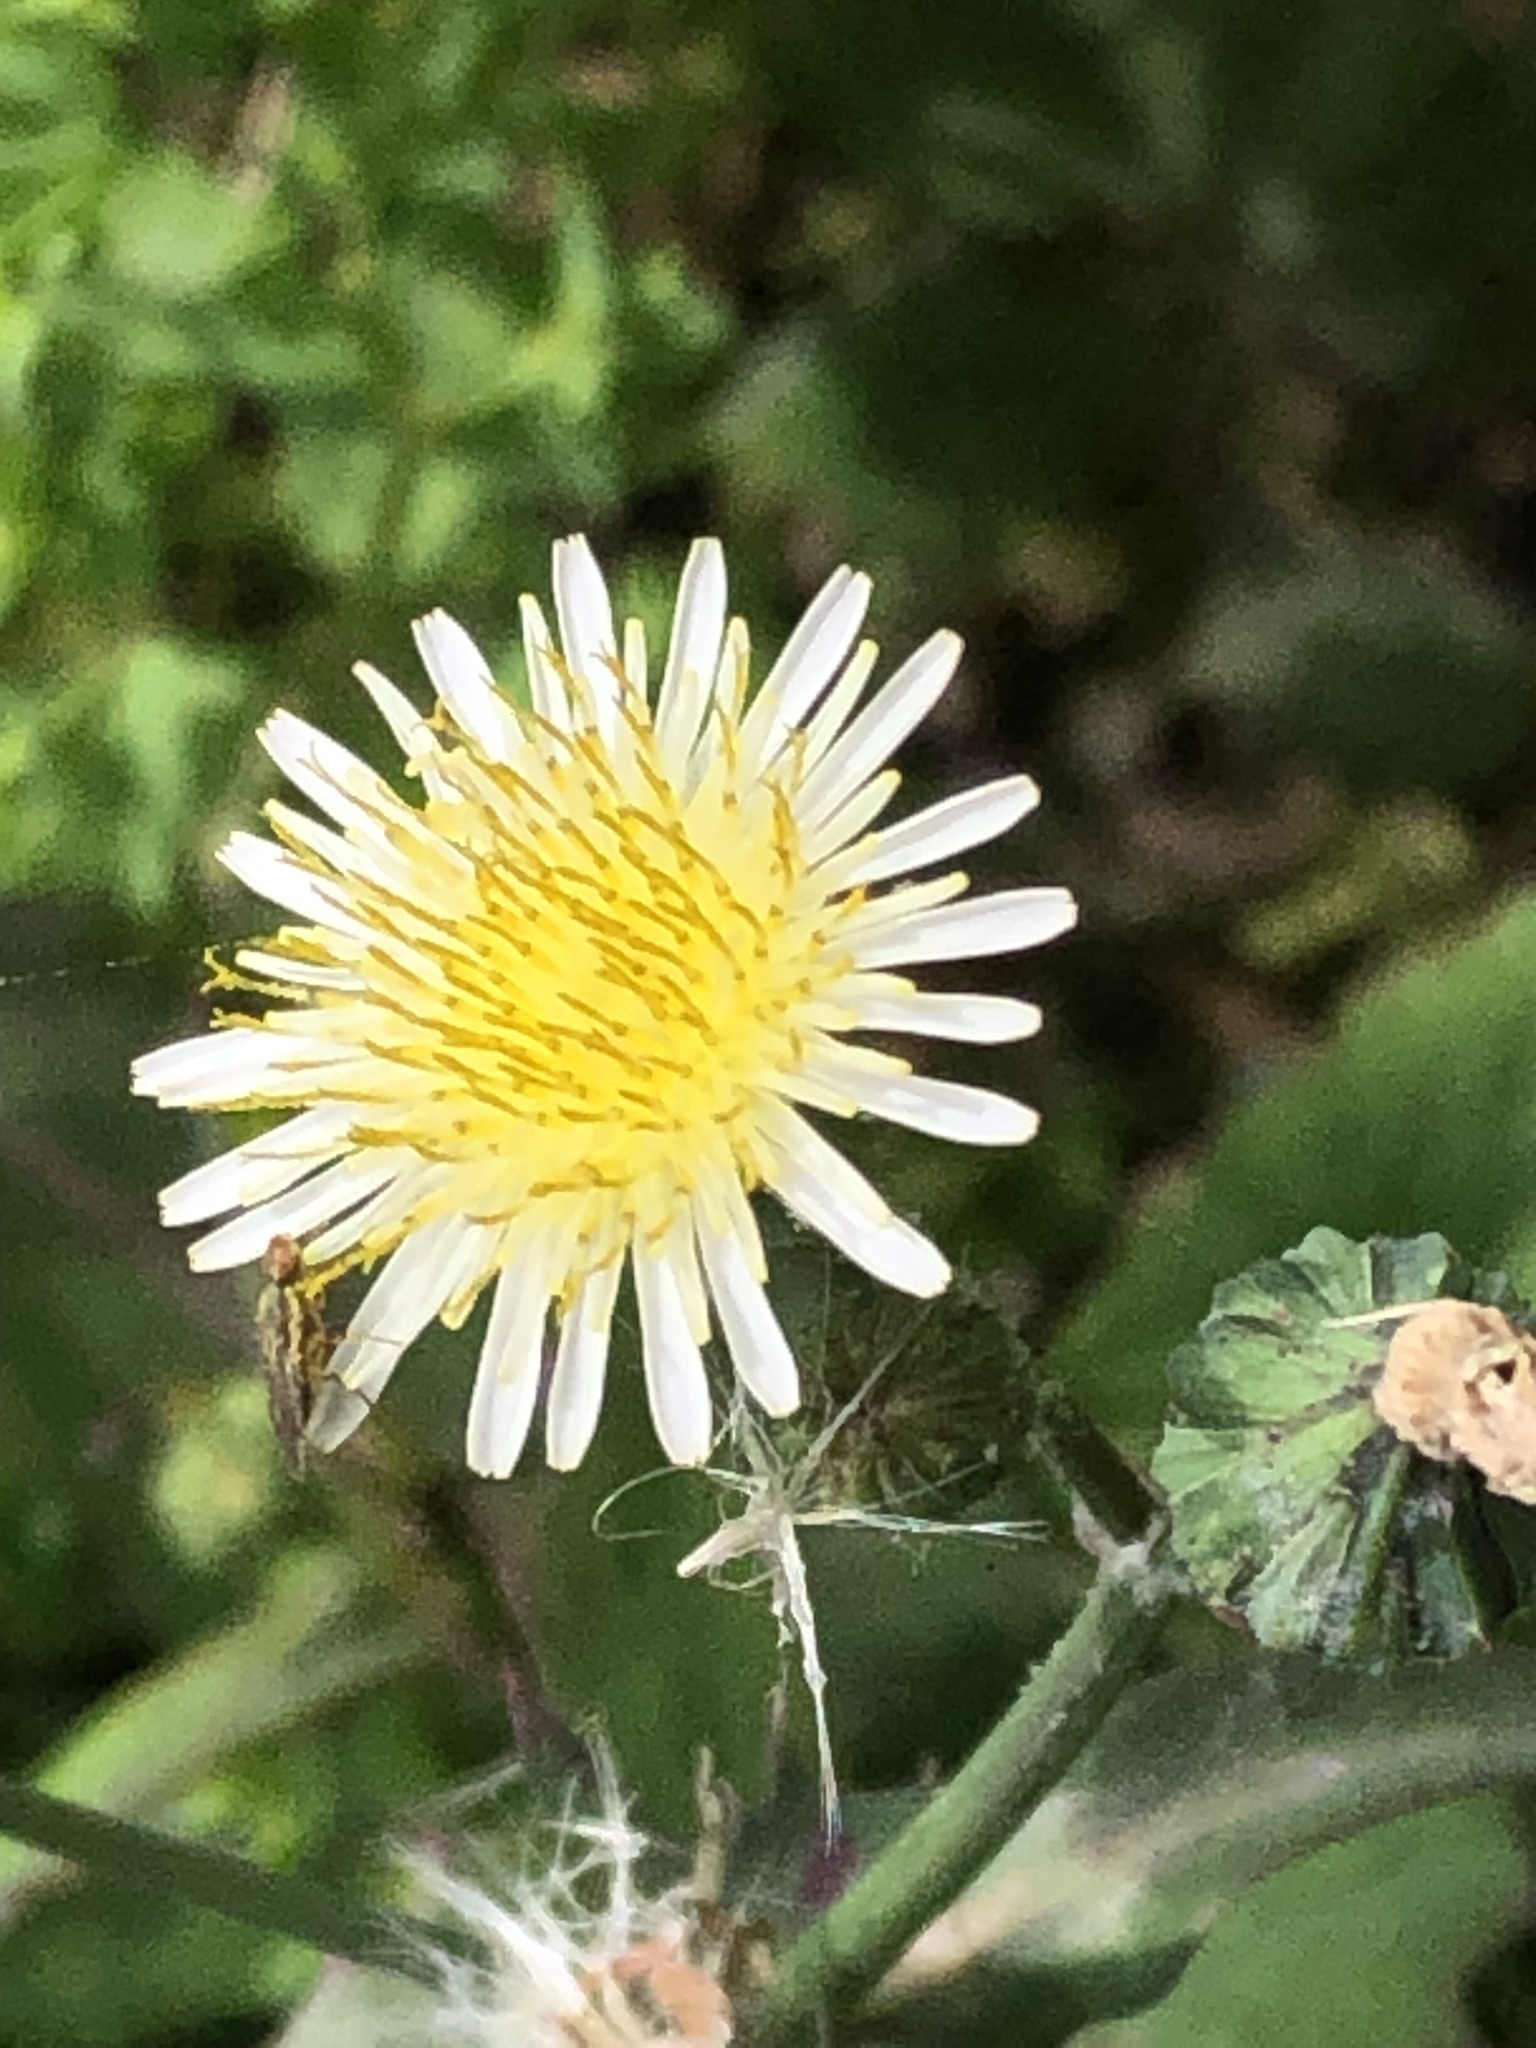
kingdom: Plantae
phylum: Tracheophyta
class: Magnoliopsida
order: Asterales
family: Asteraceae
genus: Sonchus
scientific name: Sonchus oleraceus
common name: Common sowthistle
